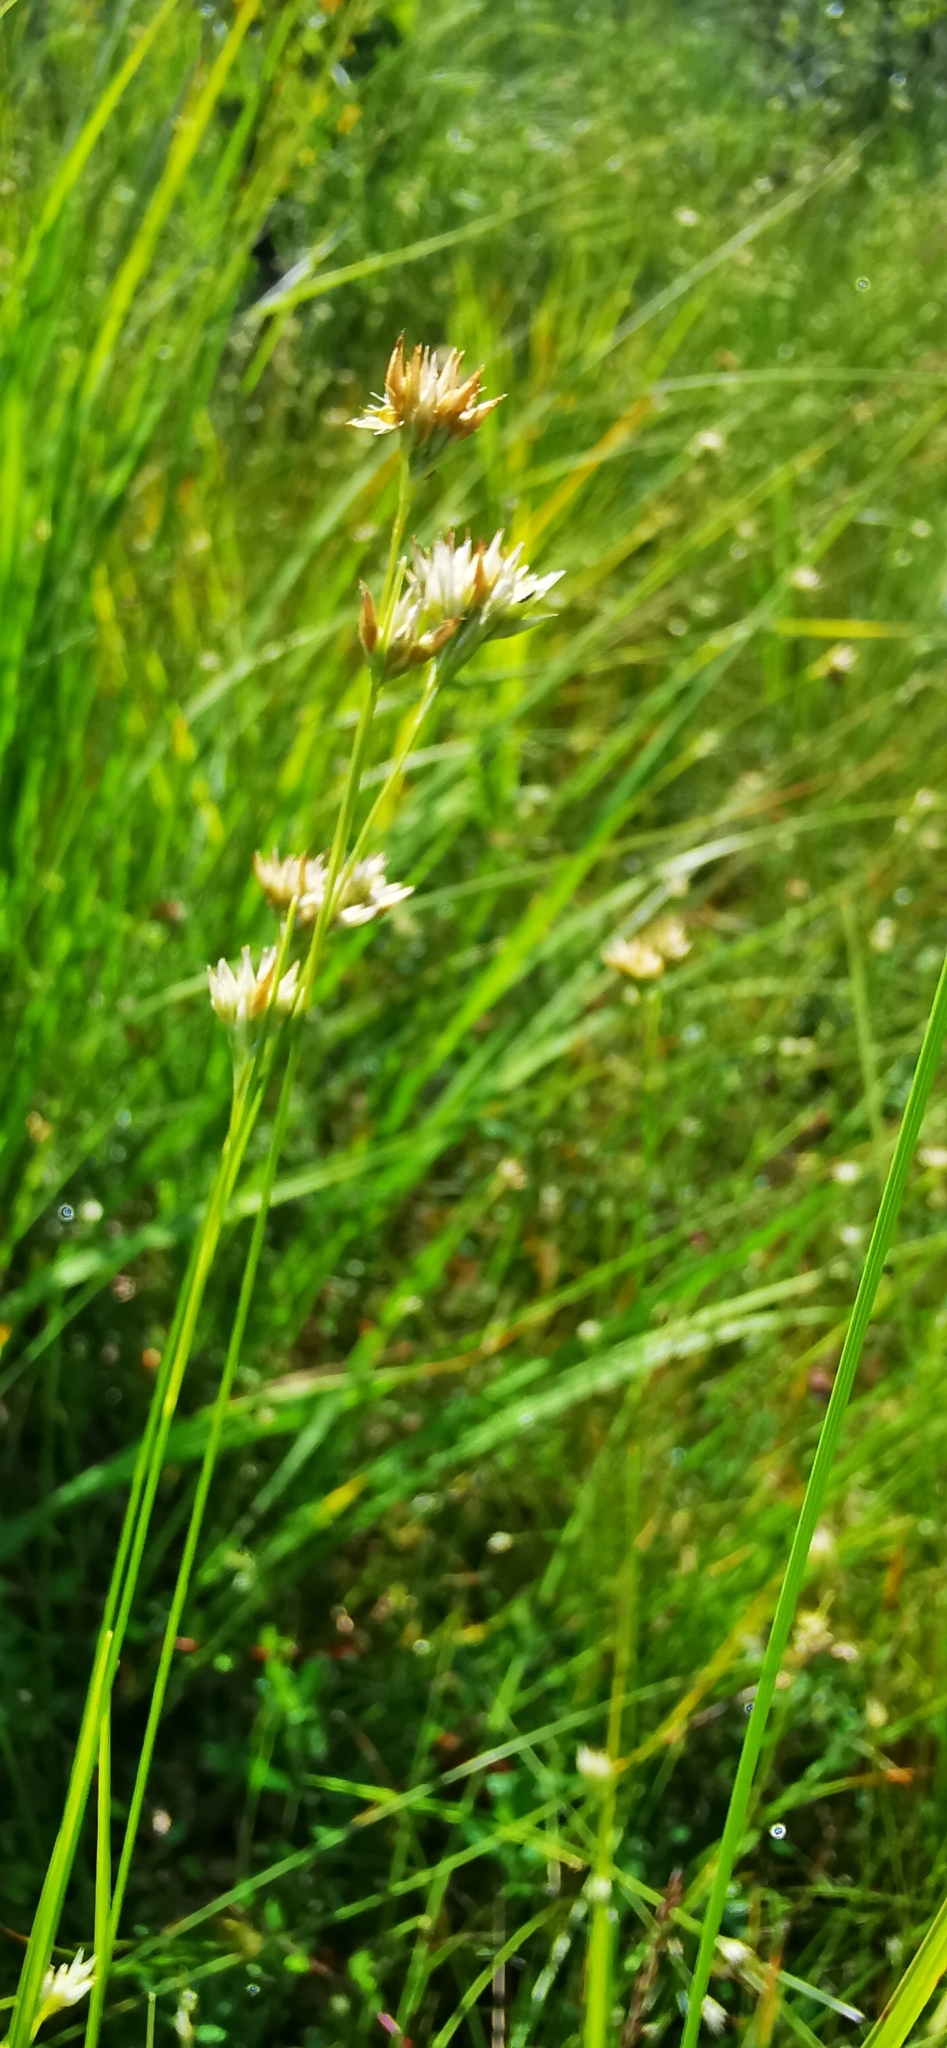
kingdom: Plantae
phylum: Tracheophyta
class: Liliopsida
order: Poales
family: Cyperaceae
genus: Rhynchospora
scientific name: Rhynchospora alba
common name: White beak-sedge
